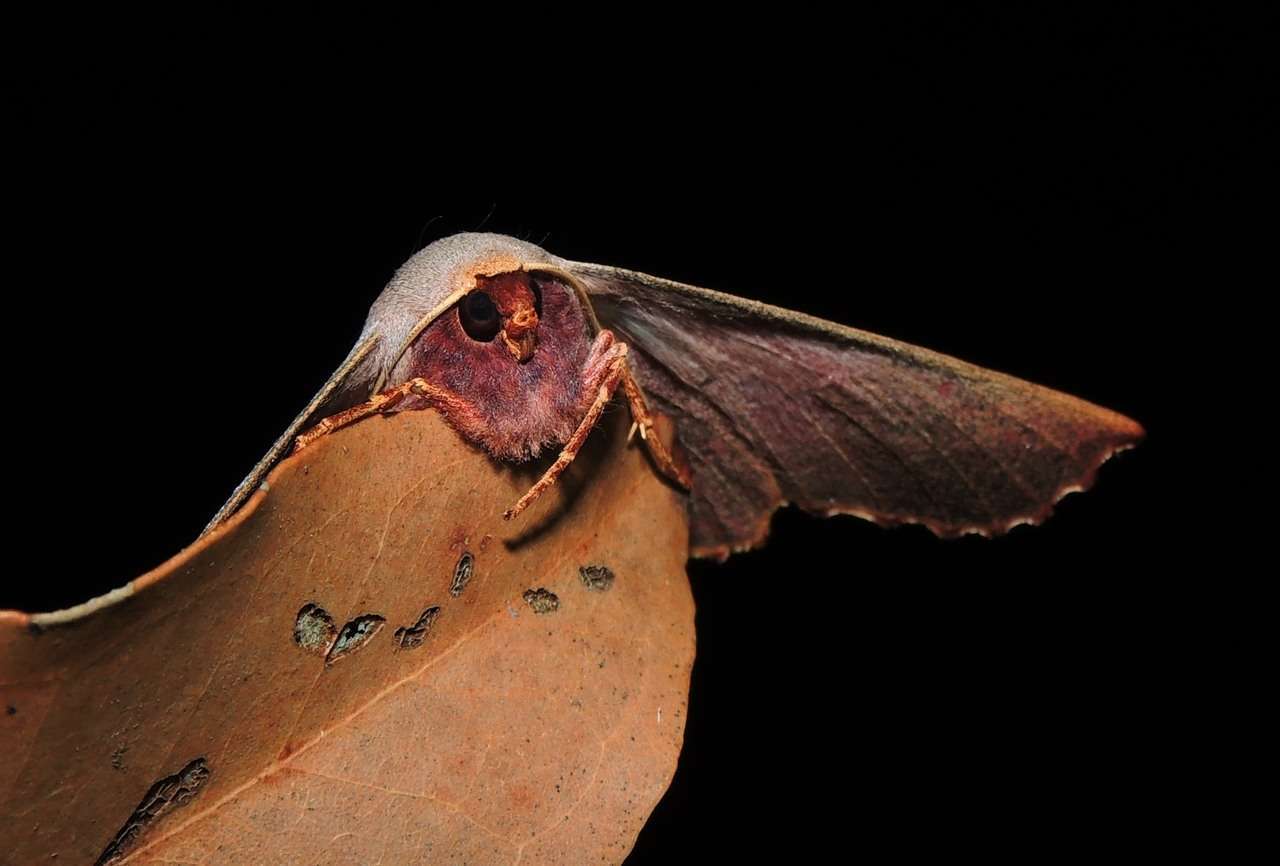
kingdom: Animalia
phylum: Arthropoda
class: Insecta
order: Lepidoptera
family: Geometridae
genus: Monoctenia
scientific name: Monoctenia smerintharia
